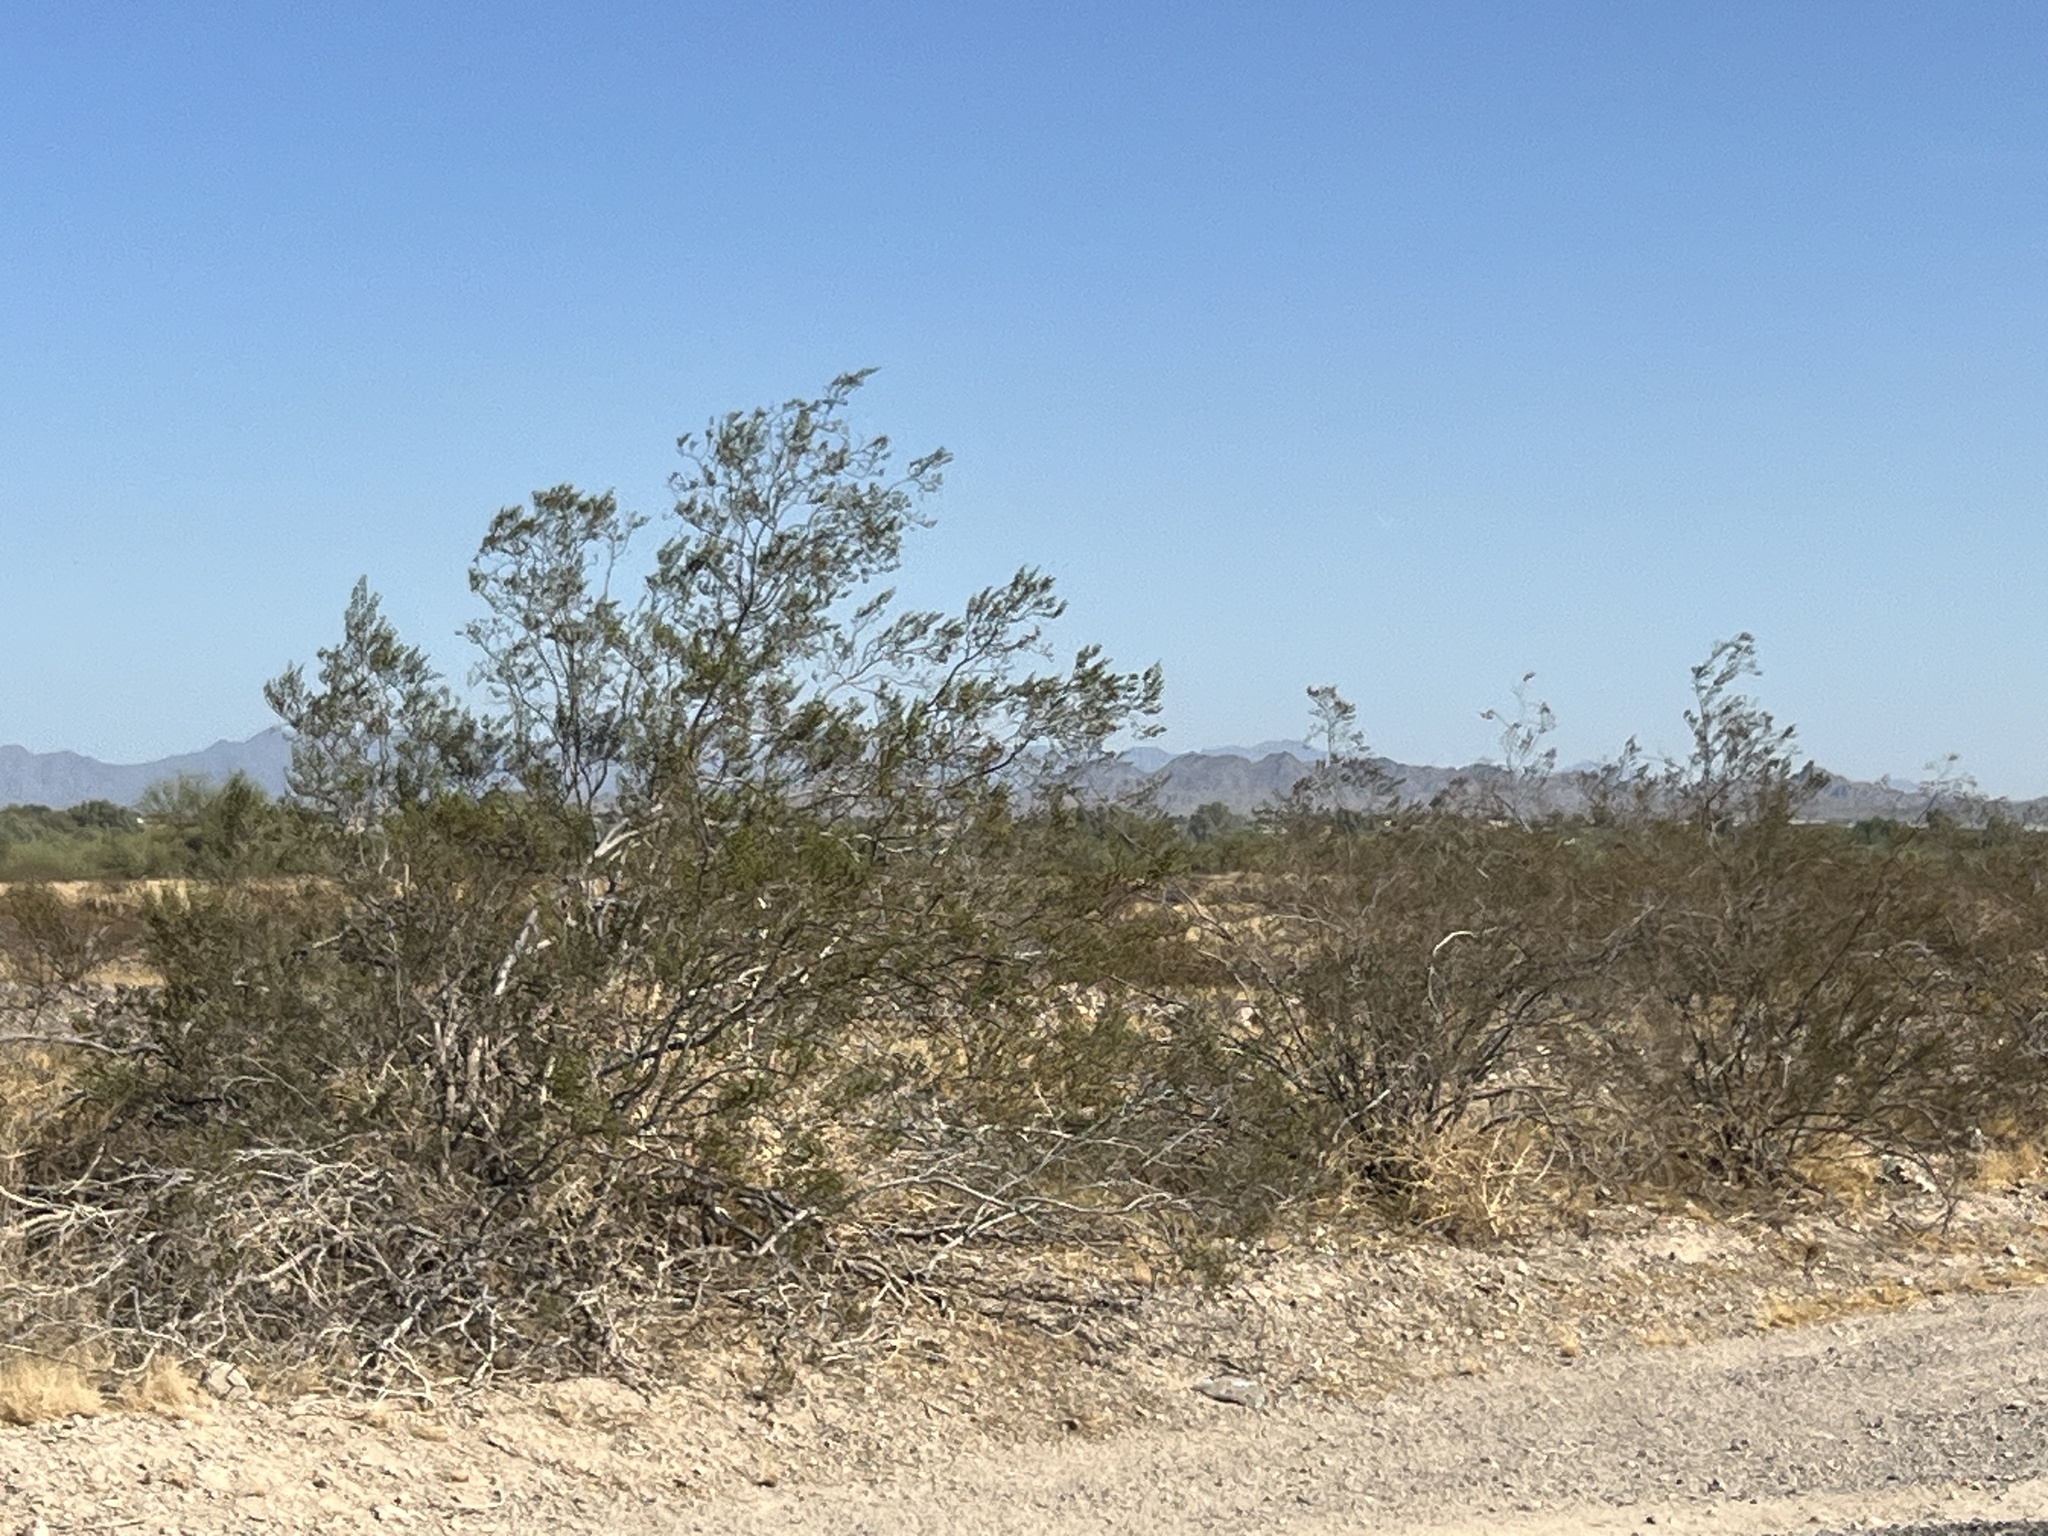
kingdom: Plantae
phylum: Tracheophyta
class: Magnoliopsida
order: Zygophyllales
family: Zygophyllaceae
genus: Larrea
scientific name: Larrea tridentata
